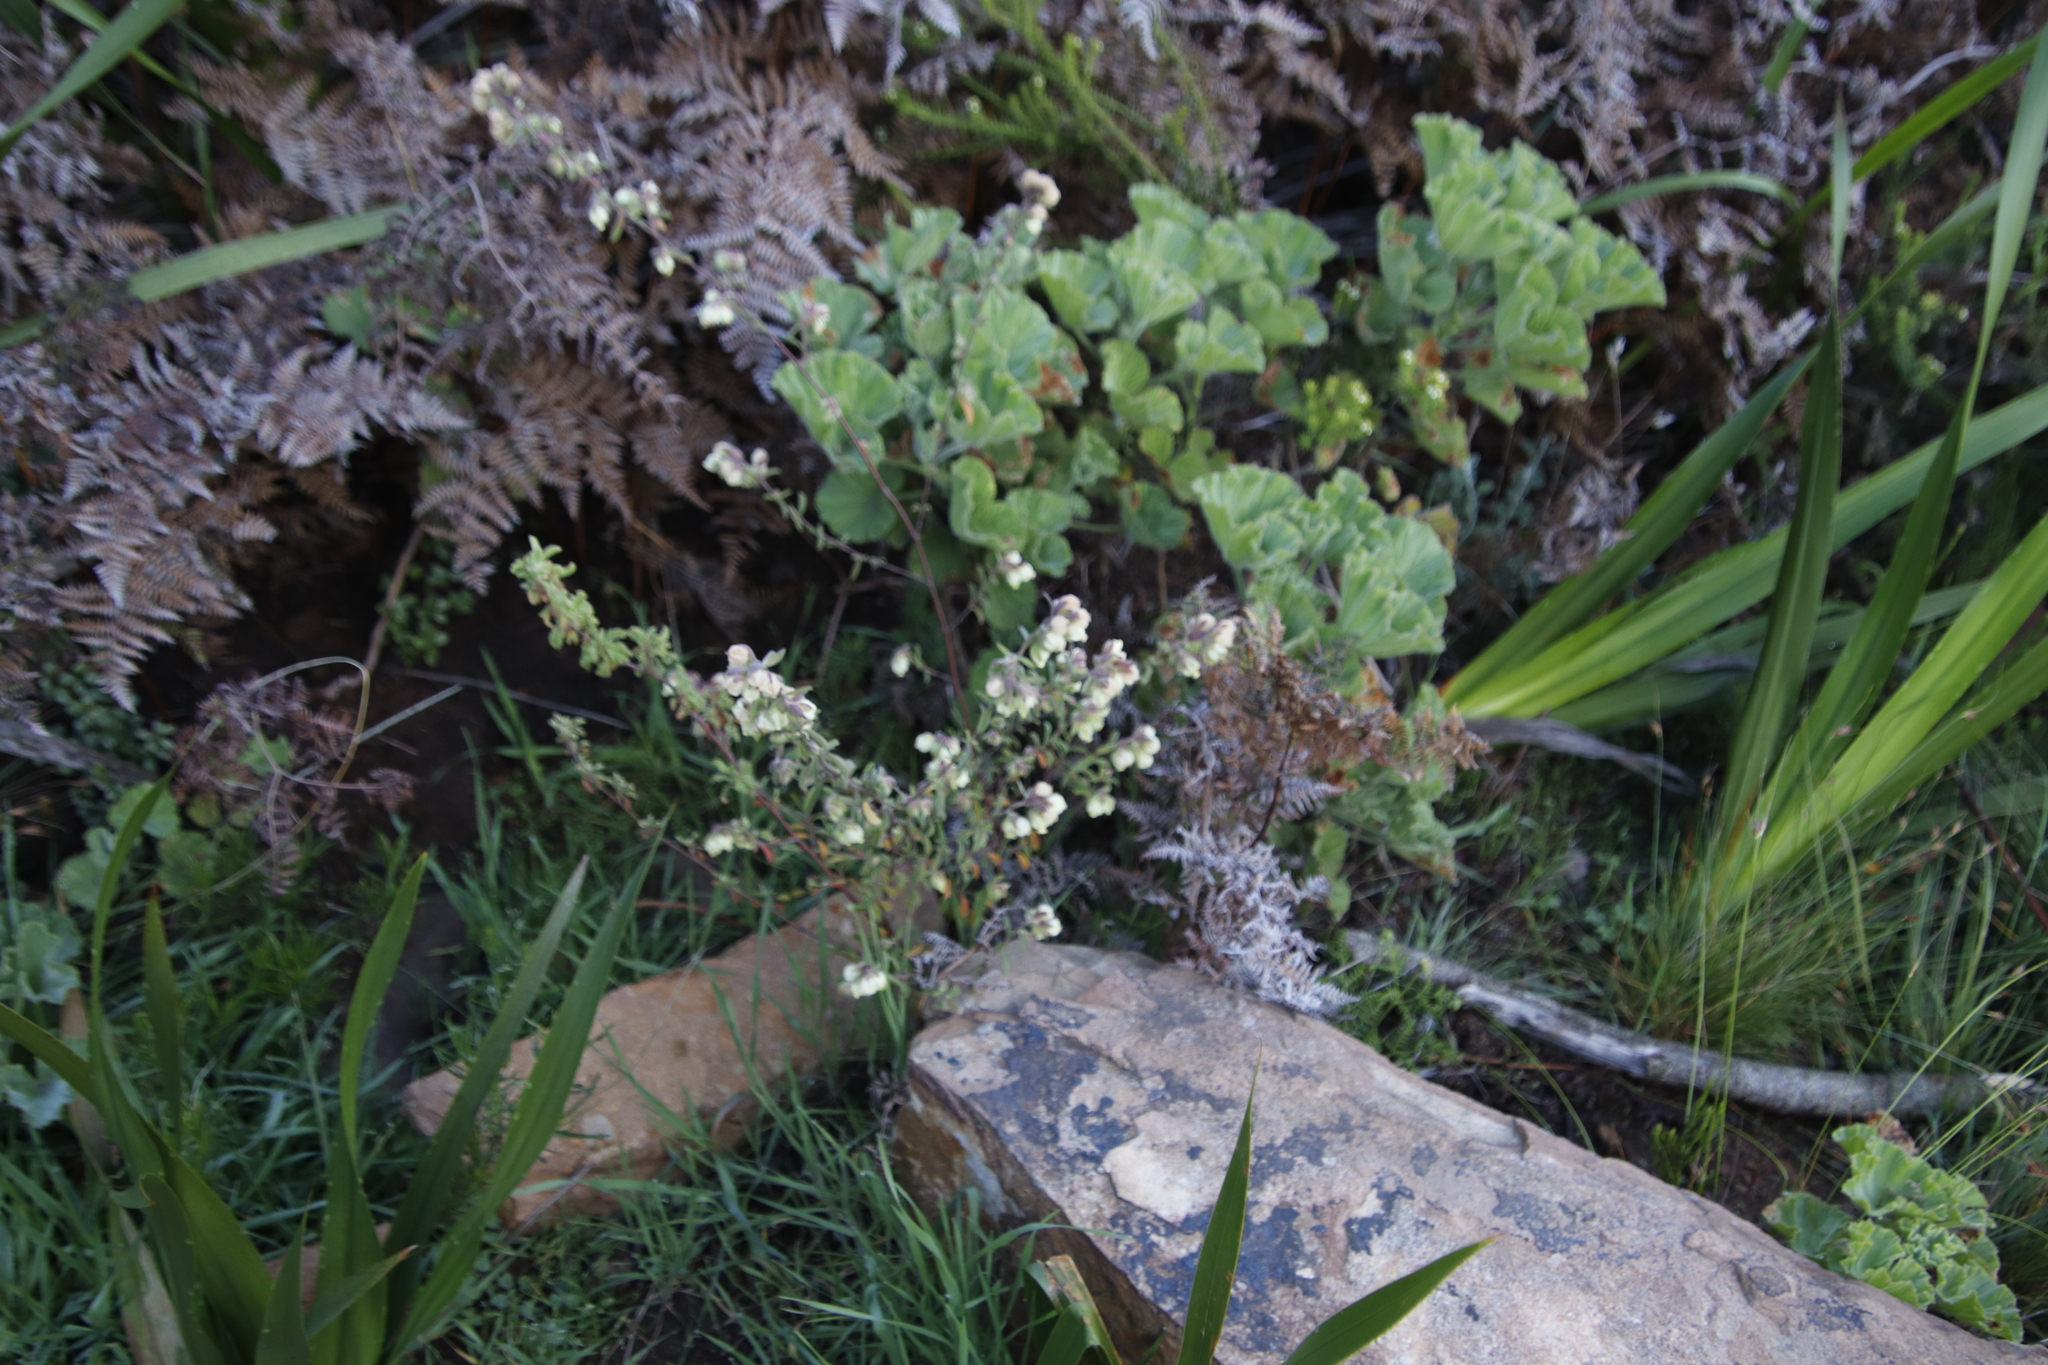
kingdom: Plantae
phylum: Tracheophyta
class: Magnoliopsida
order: Malvales
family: Malvaceae
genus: Hermannia
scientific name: Hermannia hyssopifolia
